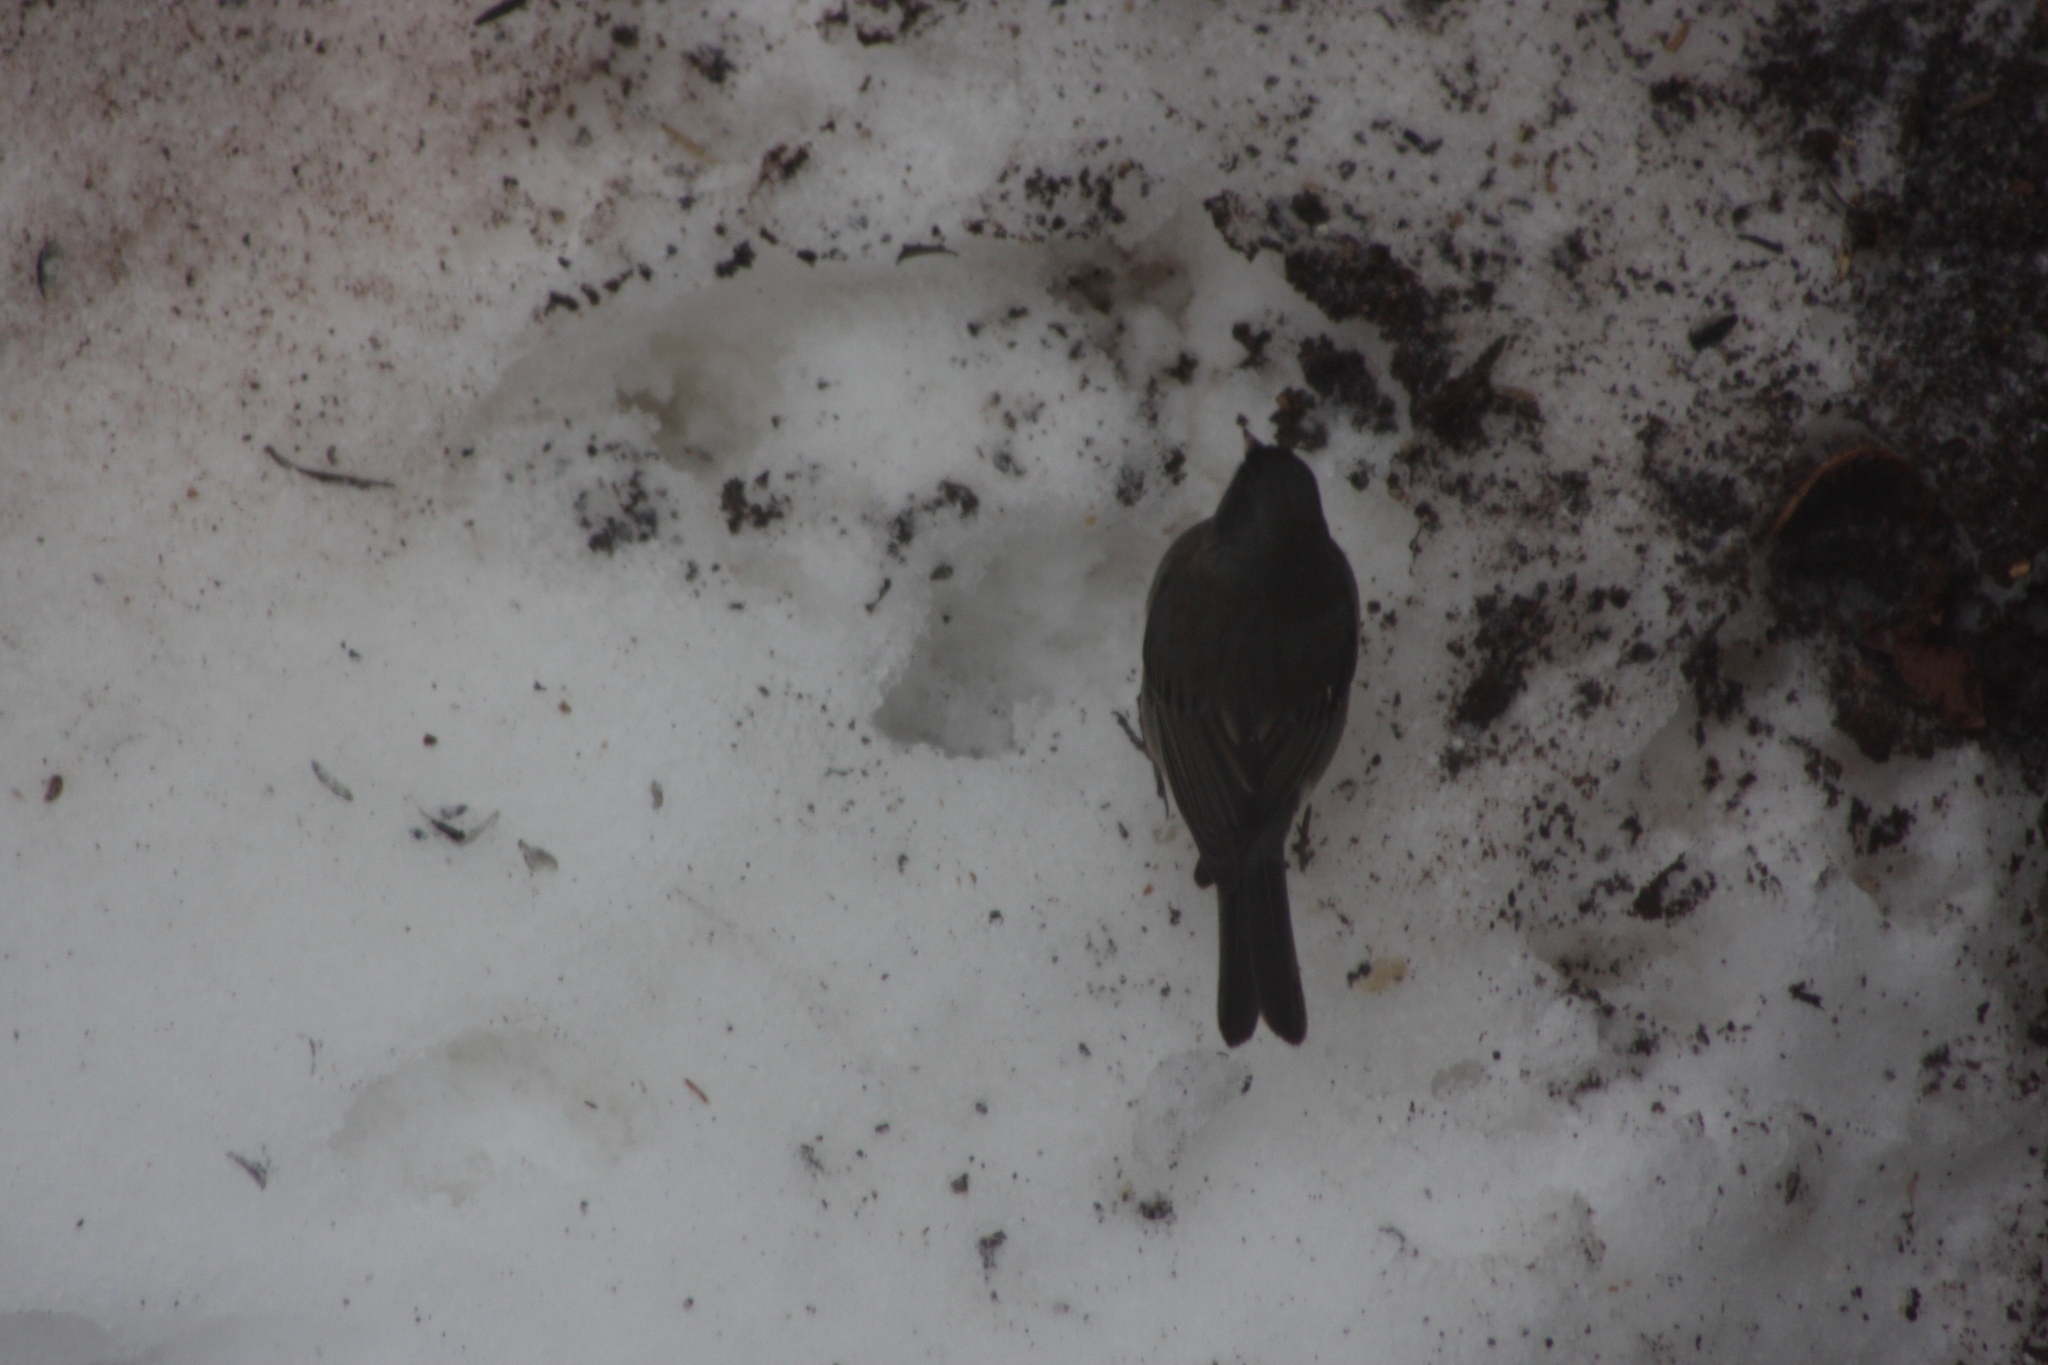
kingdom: Animalia
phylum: Chordata
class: Aves
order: Passeriformes
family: Passerellidae
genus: Junco
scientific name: Junco hyemalis
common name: Dark-eyed junco
